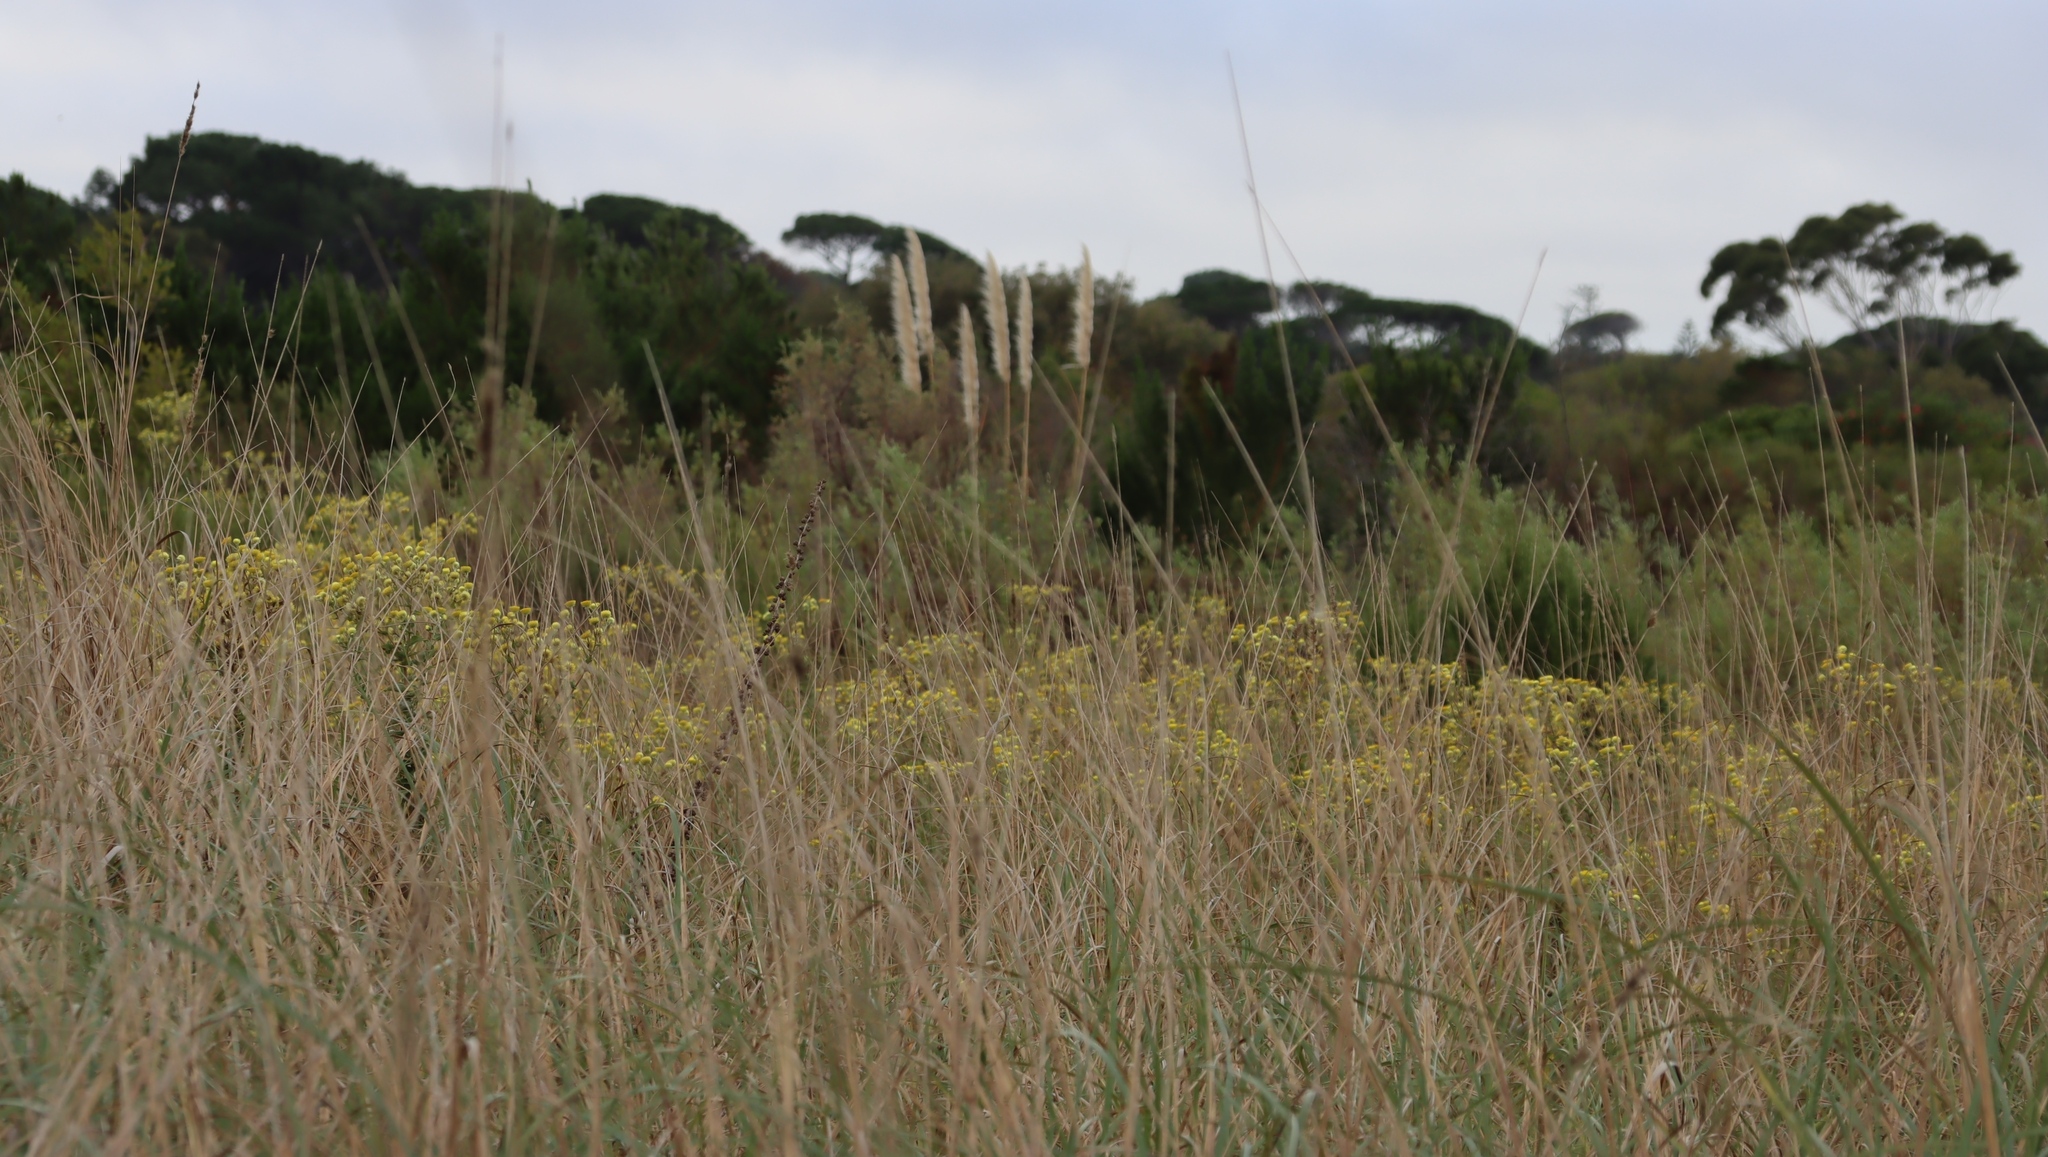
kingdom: Plantae
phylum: Tracheophyta
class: Liliopsida
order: Poales
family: Poaceae
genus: Cortaderia
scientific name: Cortaderia selloana
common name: Uruguayan pampas grass
